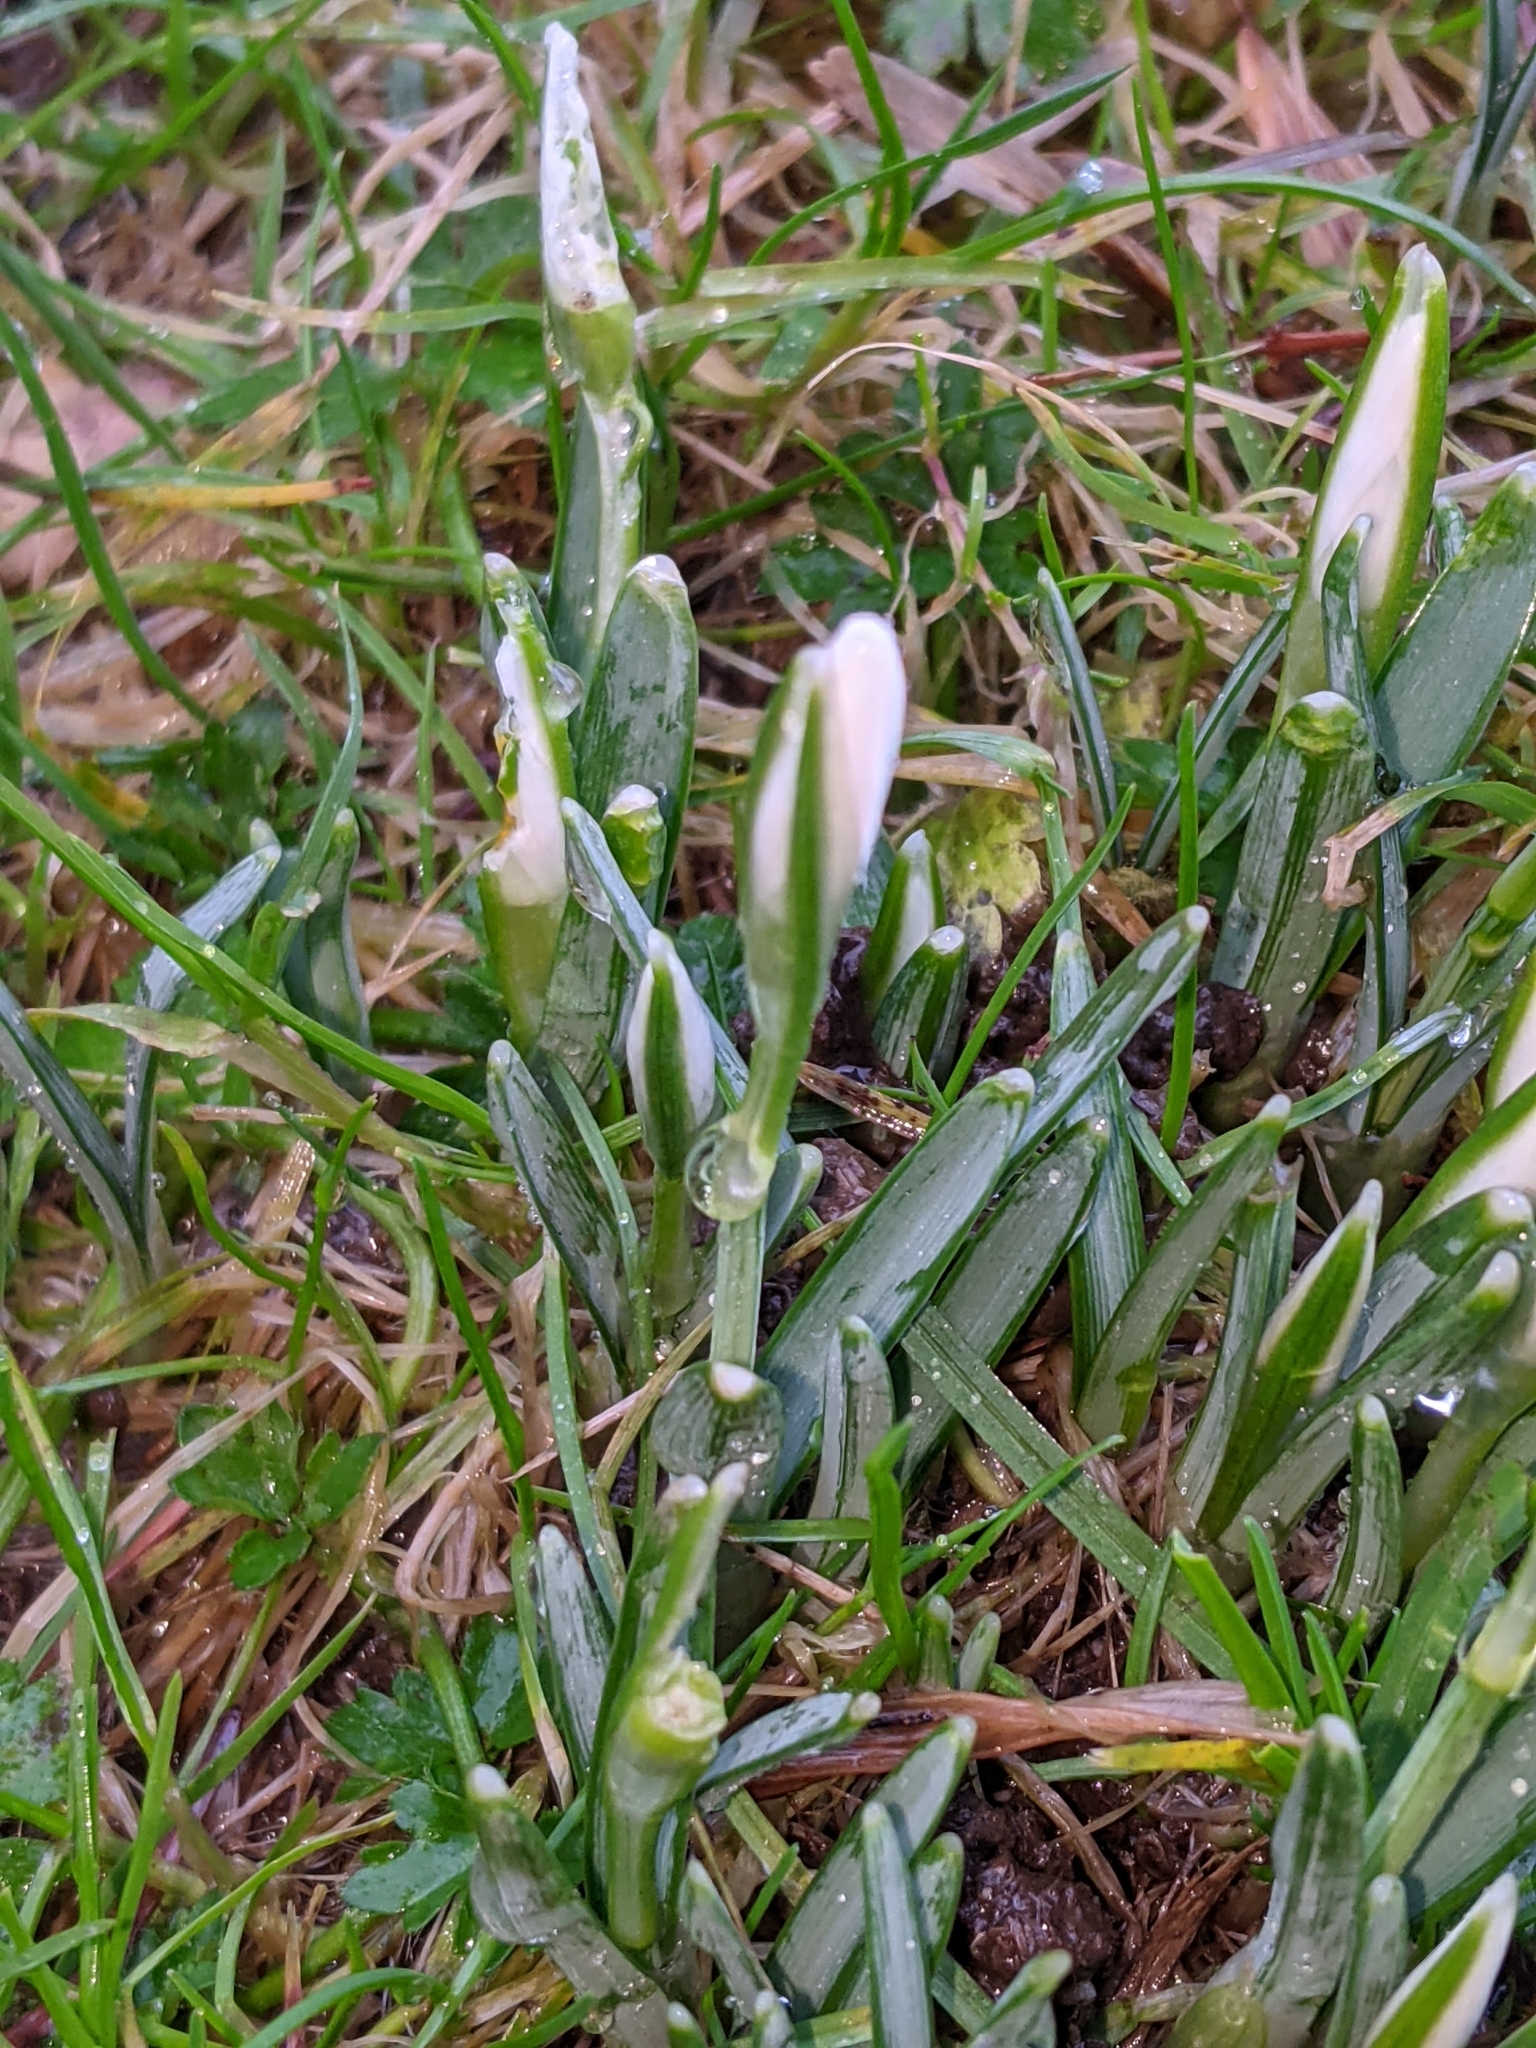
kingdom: Plantae
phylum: Tracheophyta
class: Liliopsida
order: Asparagales
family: Amaryllidaceae
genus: Galanthus
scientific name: Galanthus nivalis
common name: Snowdrop
